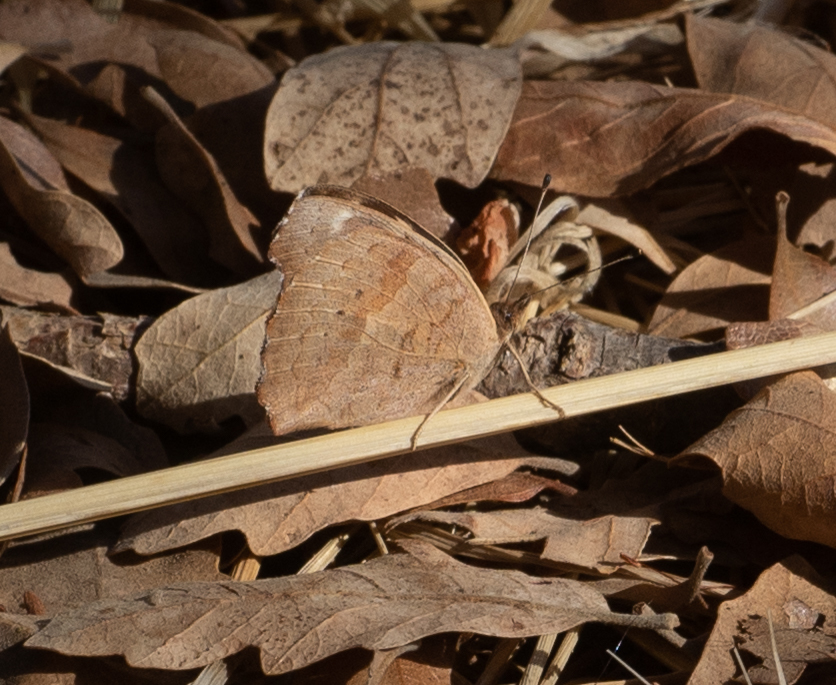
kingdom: Animalia
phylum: Arthropoda
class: Insecta
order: Lepidoptera
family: Nymphalidae
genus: Junonia
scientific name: Junonia grisea
